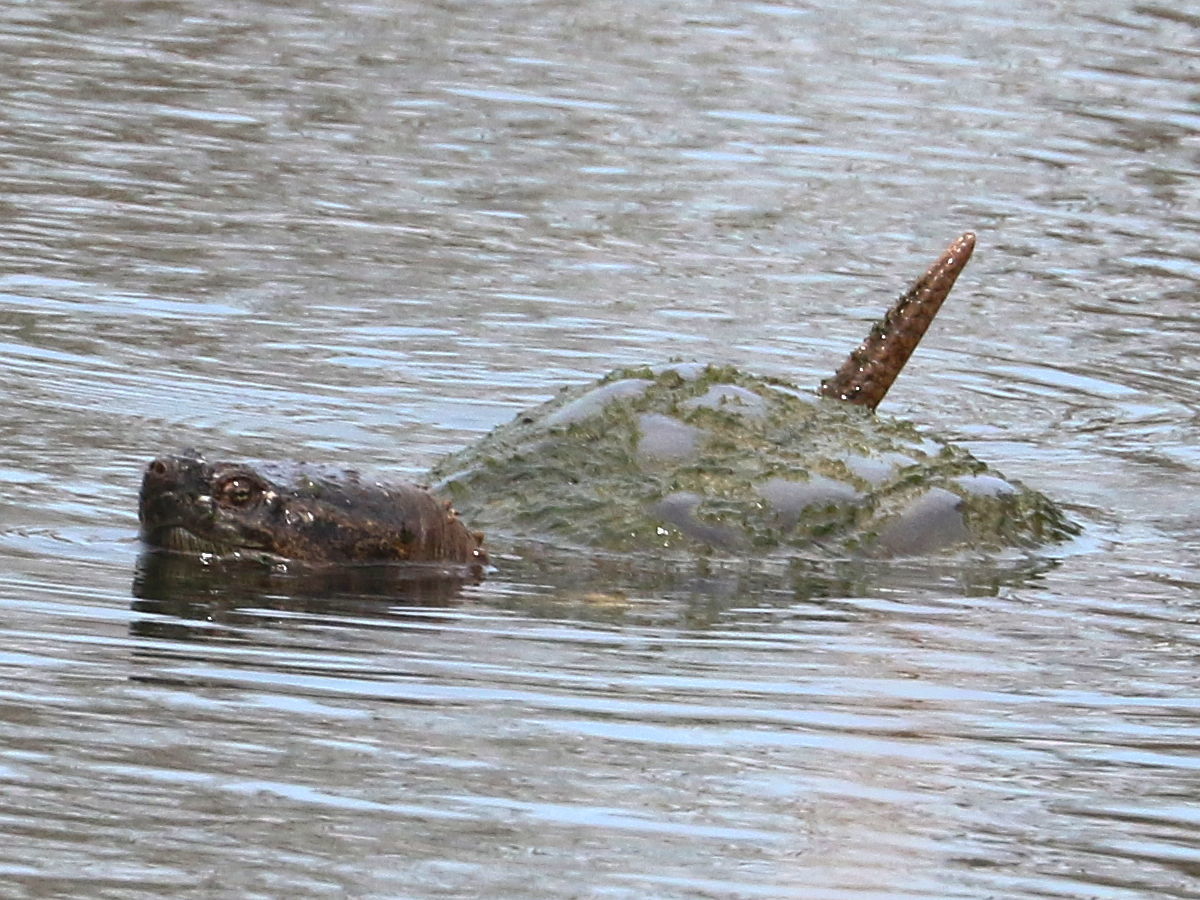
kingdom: Animalia
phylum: Chordata
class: Testudines
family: Chelydridae
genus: Chelydra
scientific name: Chelydra serpentina
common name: Common snapping turtle
